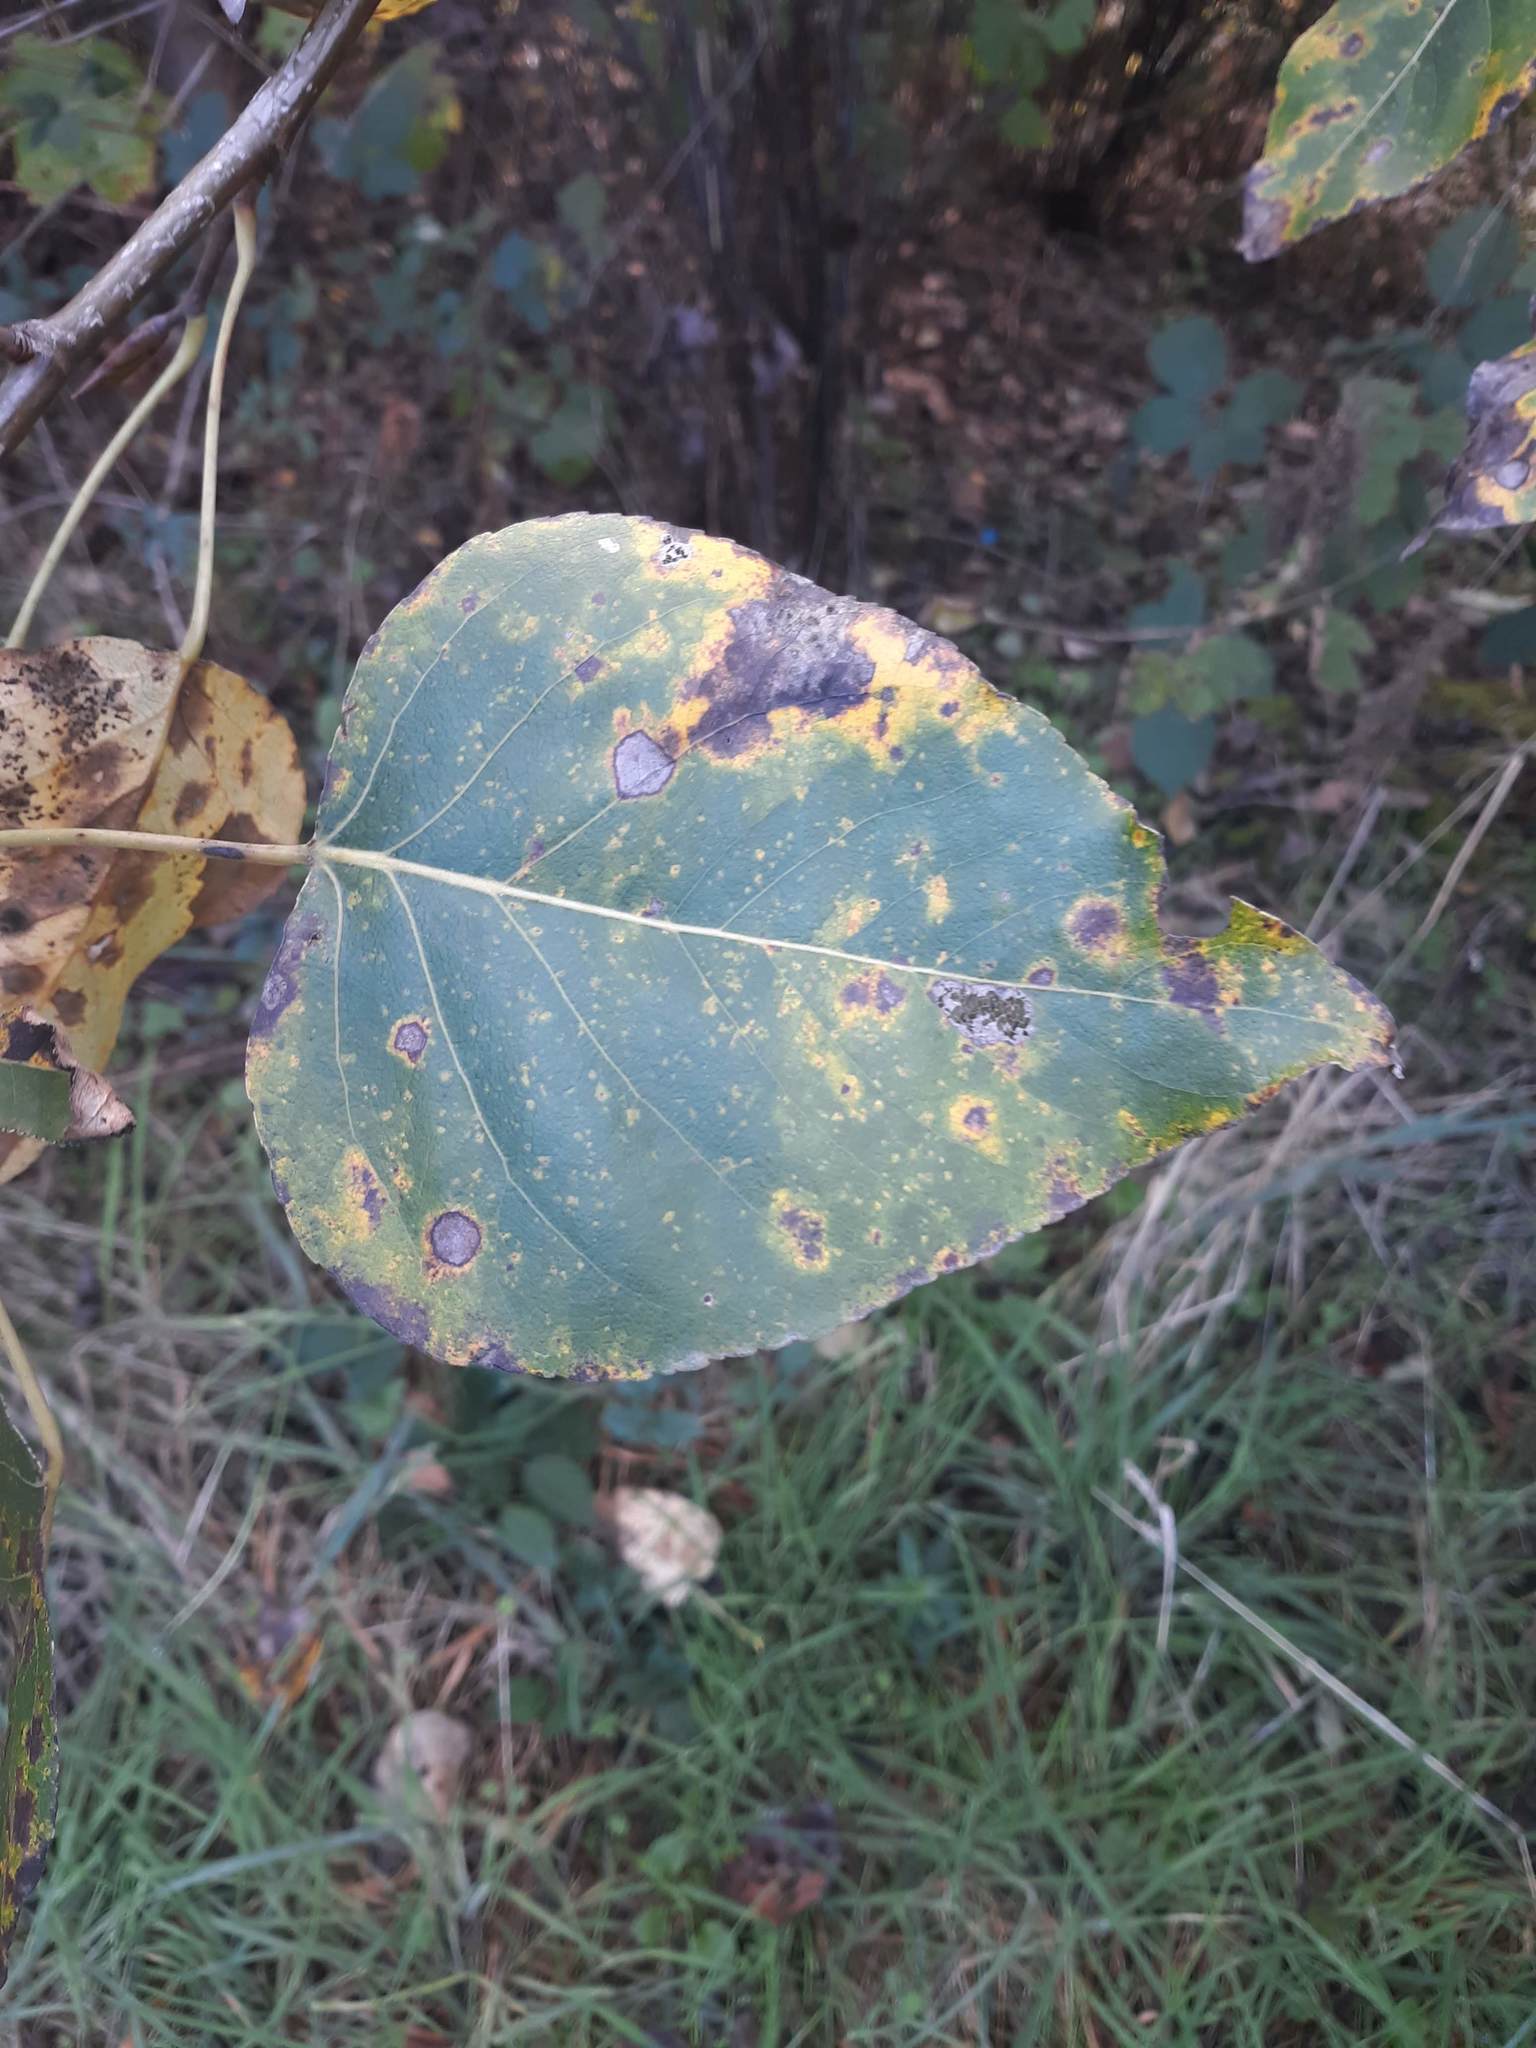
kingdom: Plantae
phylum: Tracheophyta
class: Magnoliopsida
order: Malpighiales
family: Salicaceae
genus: Populus
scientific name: Populus trichocarpa
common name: Black cottonwood
